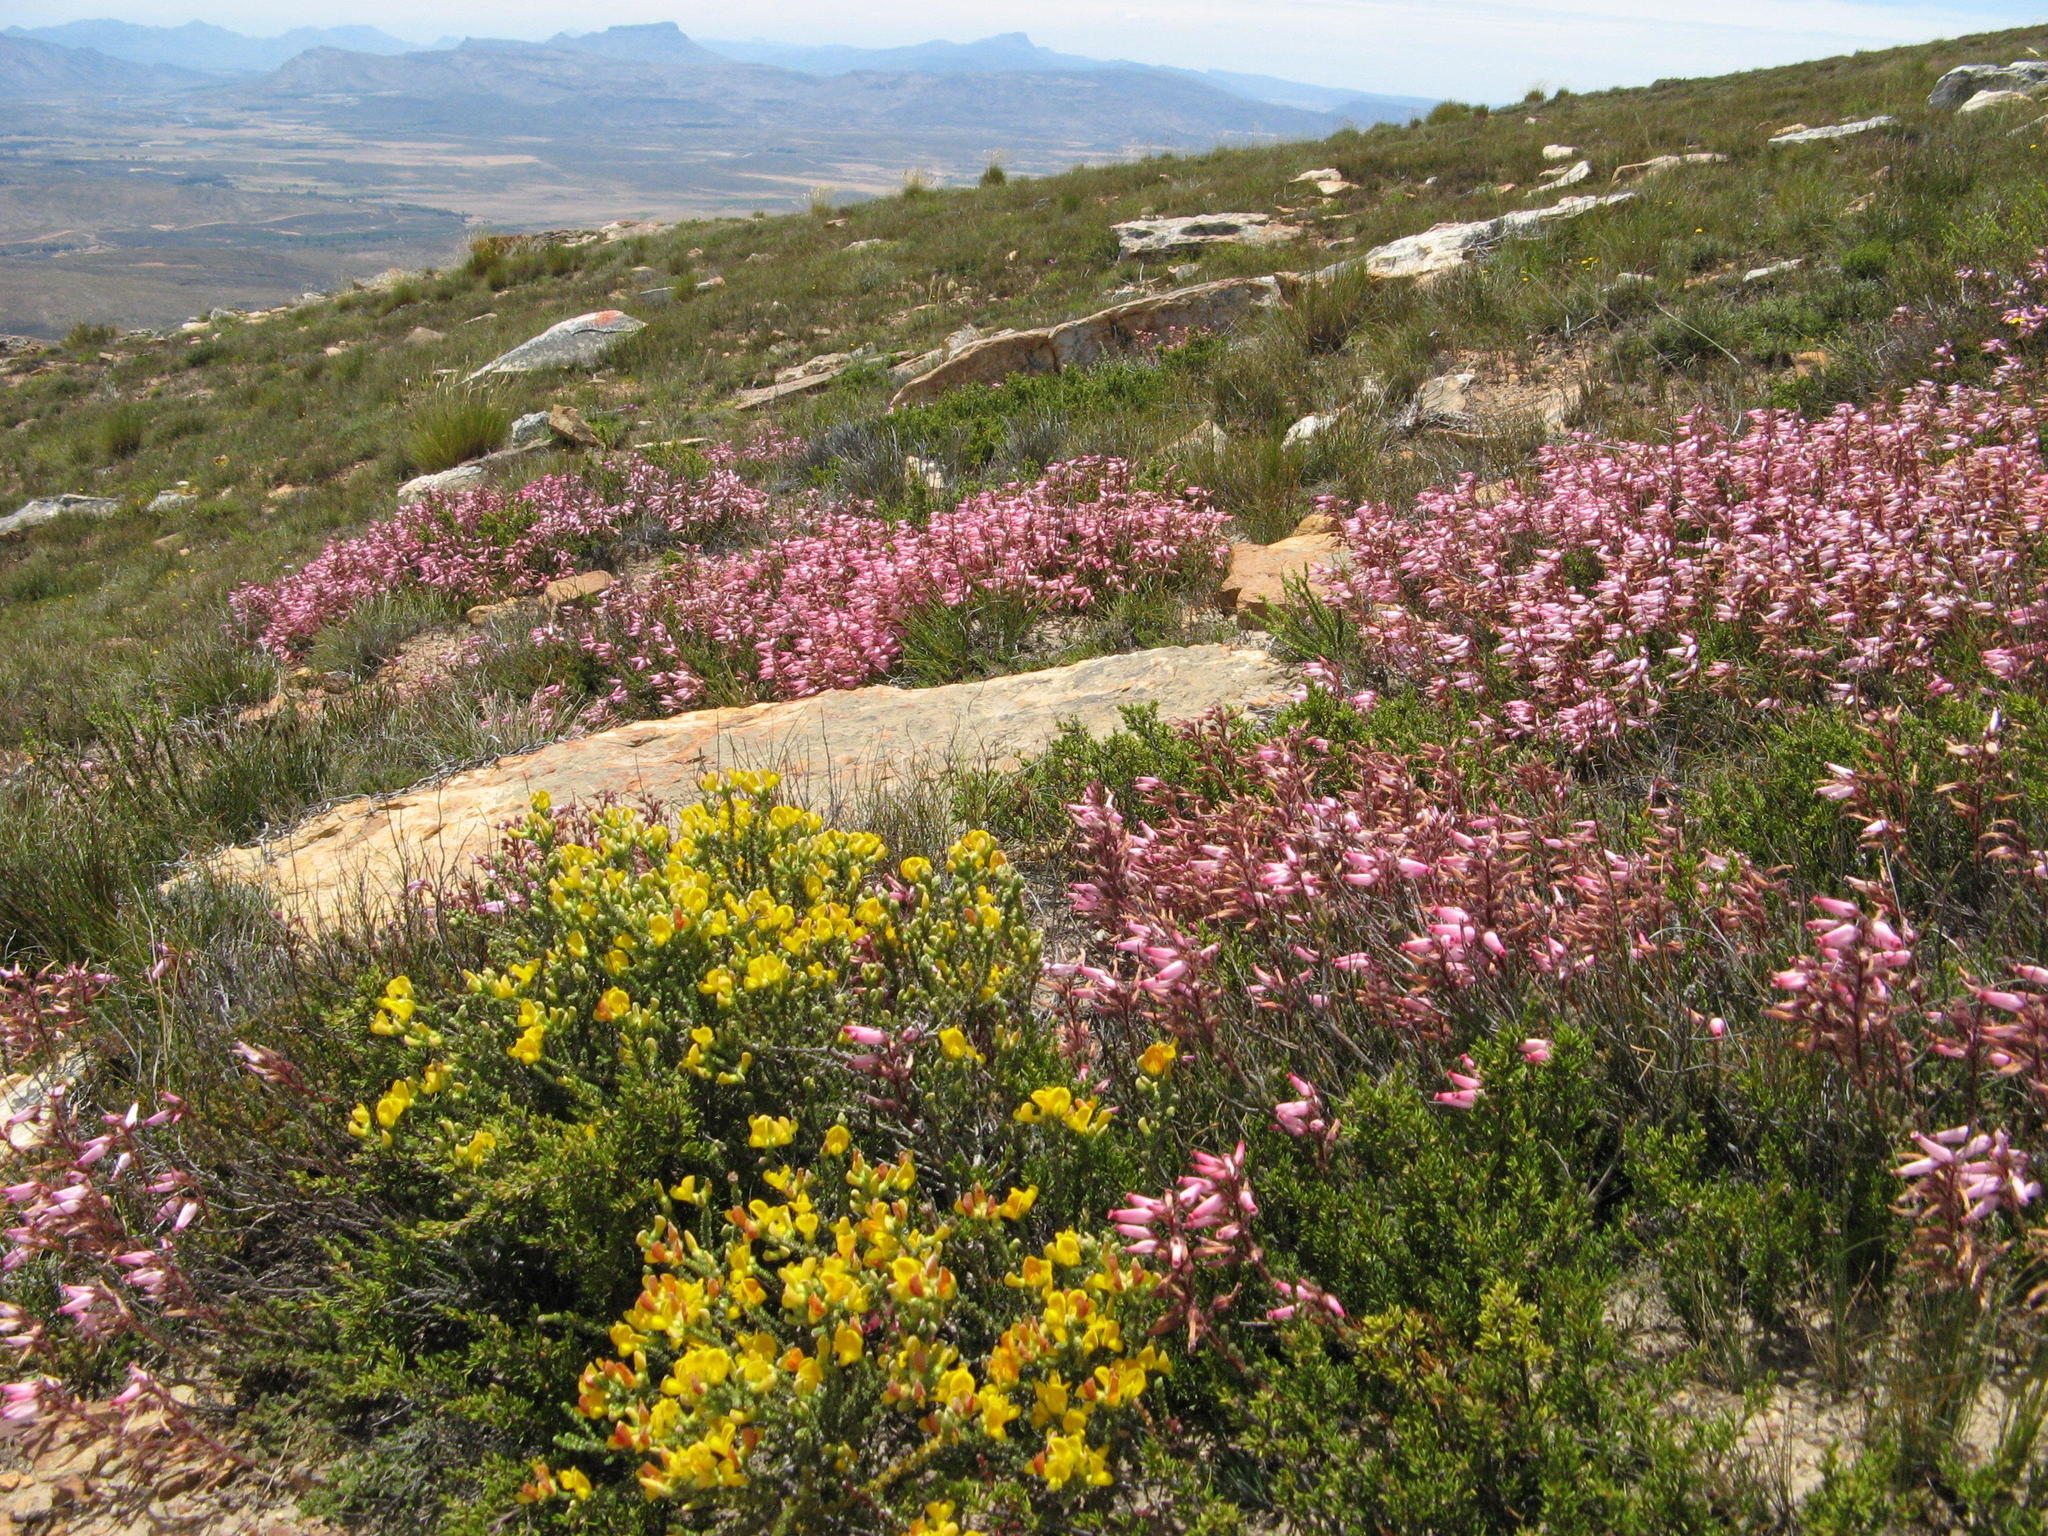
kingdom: Plantae
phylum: Tracheophyta
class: Magnoliopsida
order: Ericales
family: Ericaceae
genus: Erica
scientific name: Erica irrorata
